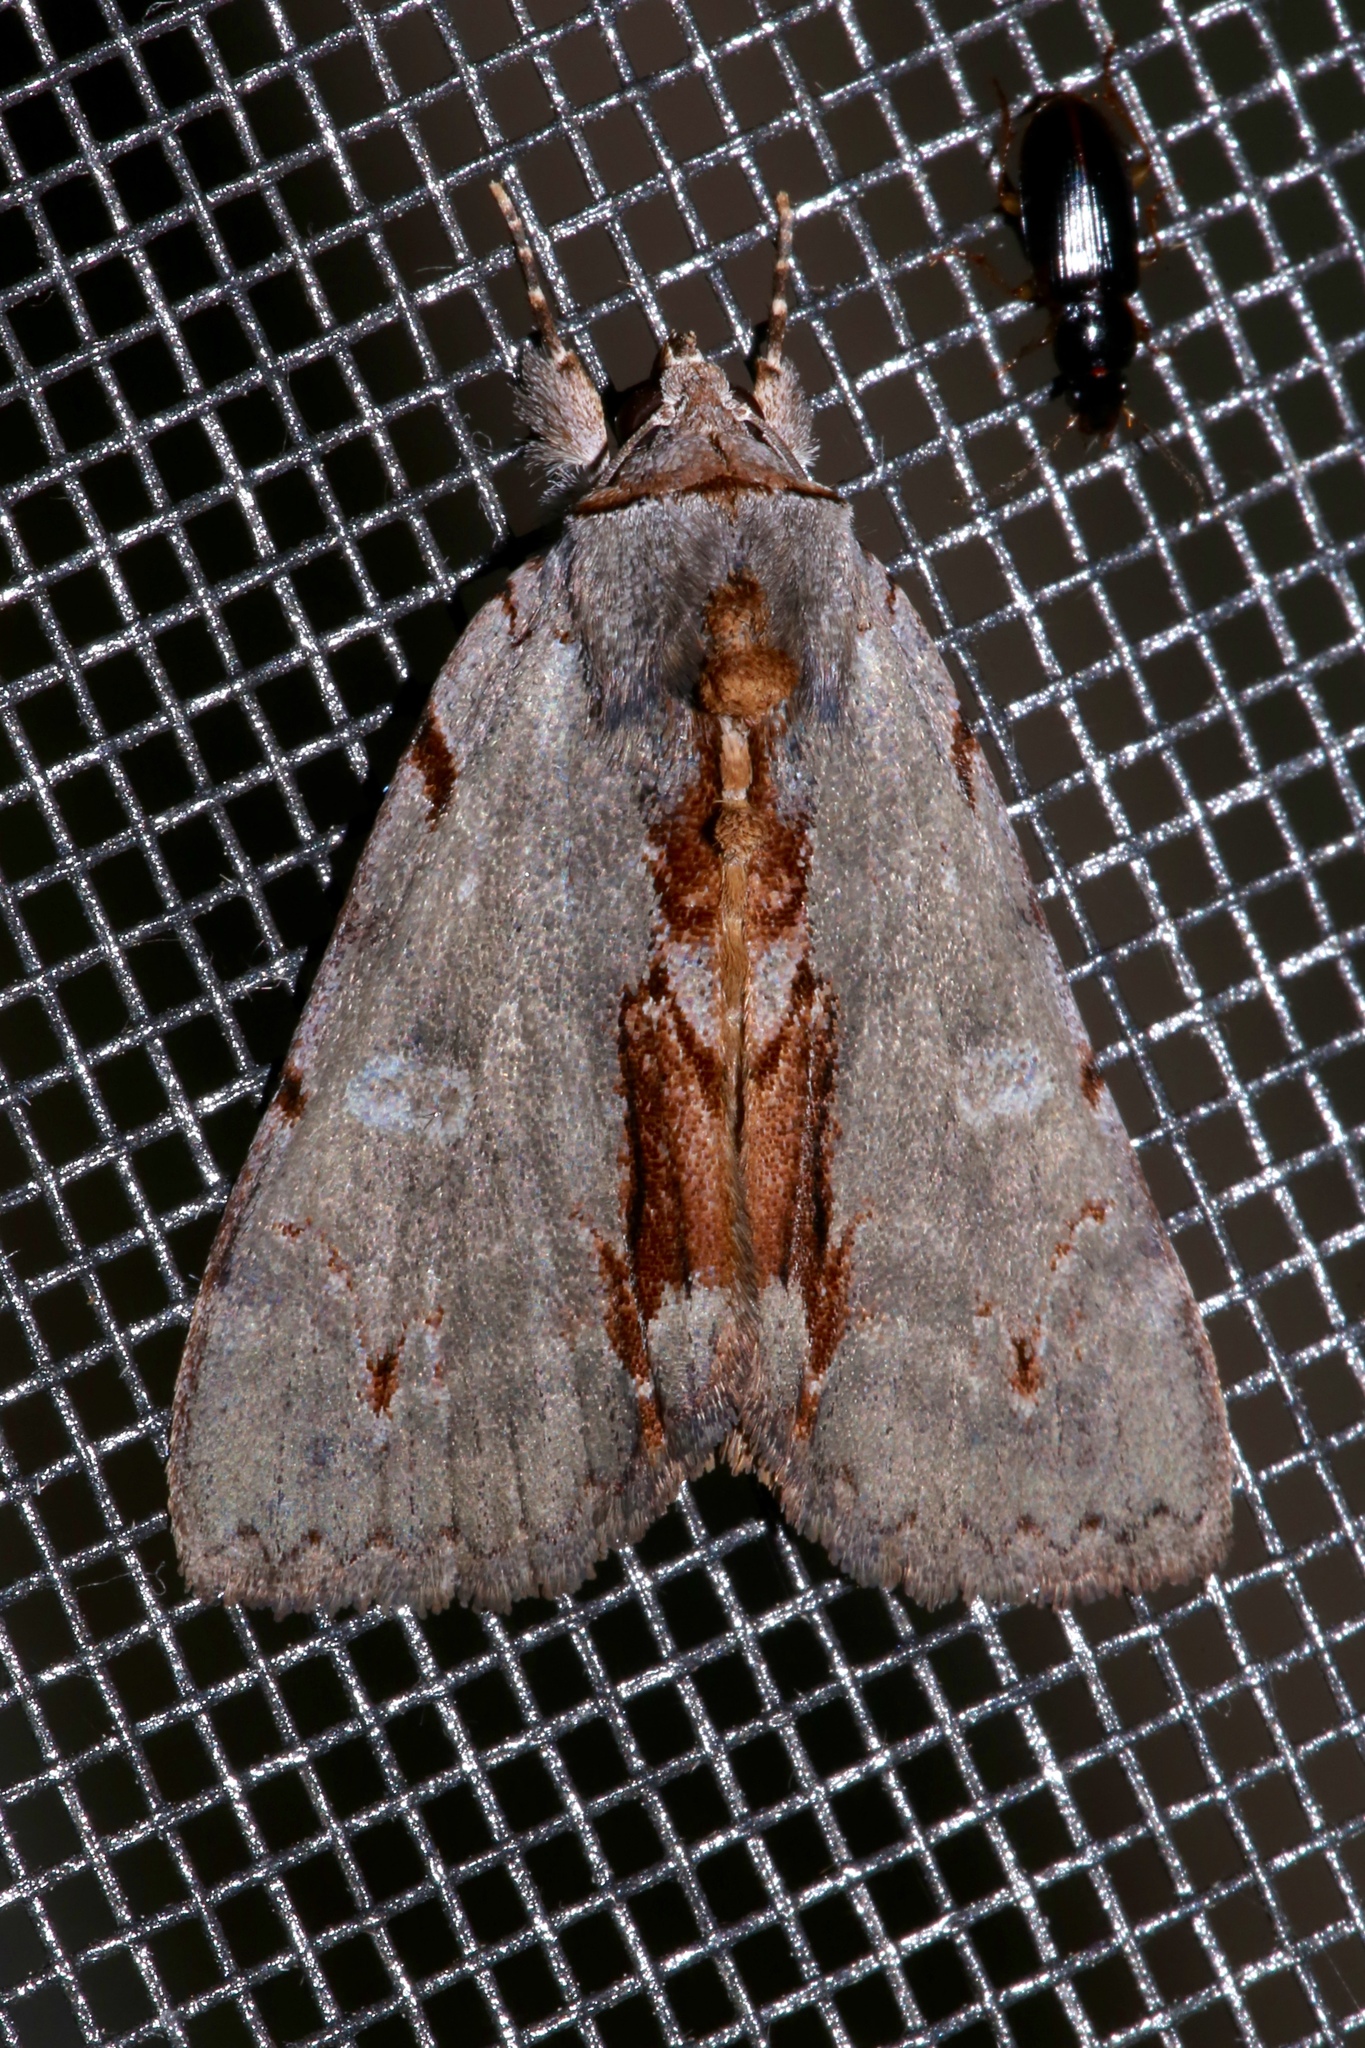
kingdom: Animalia
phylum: Arthropoda
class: Insecta
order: Lepidoptera
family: Erebidae
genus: Catocala
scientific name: Catocala grynea
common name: Woody underwing
